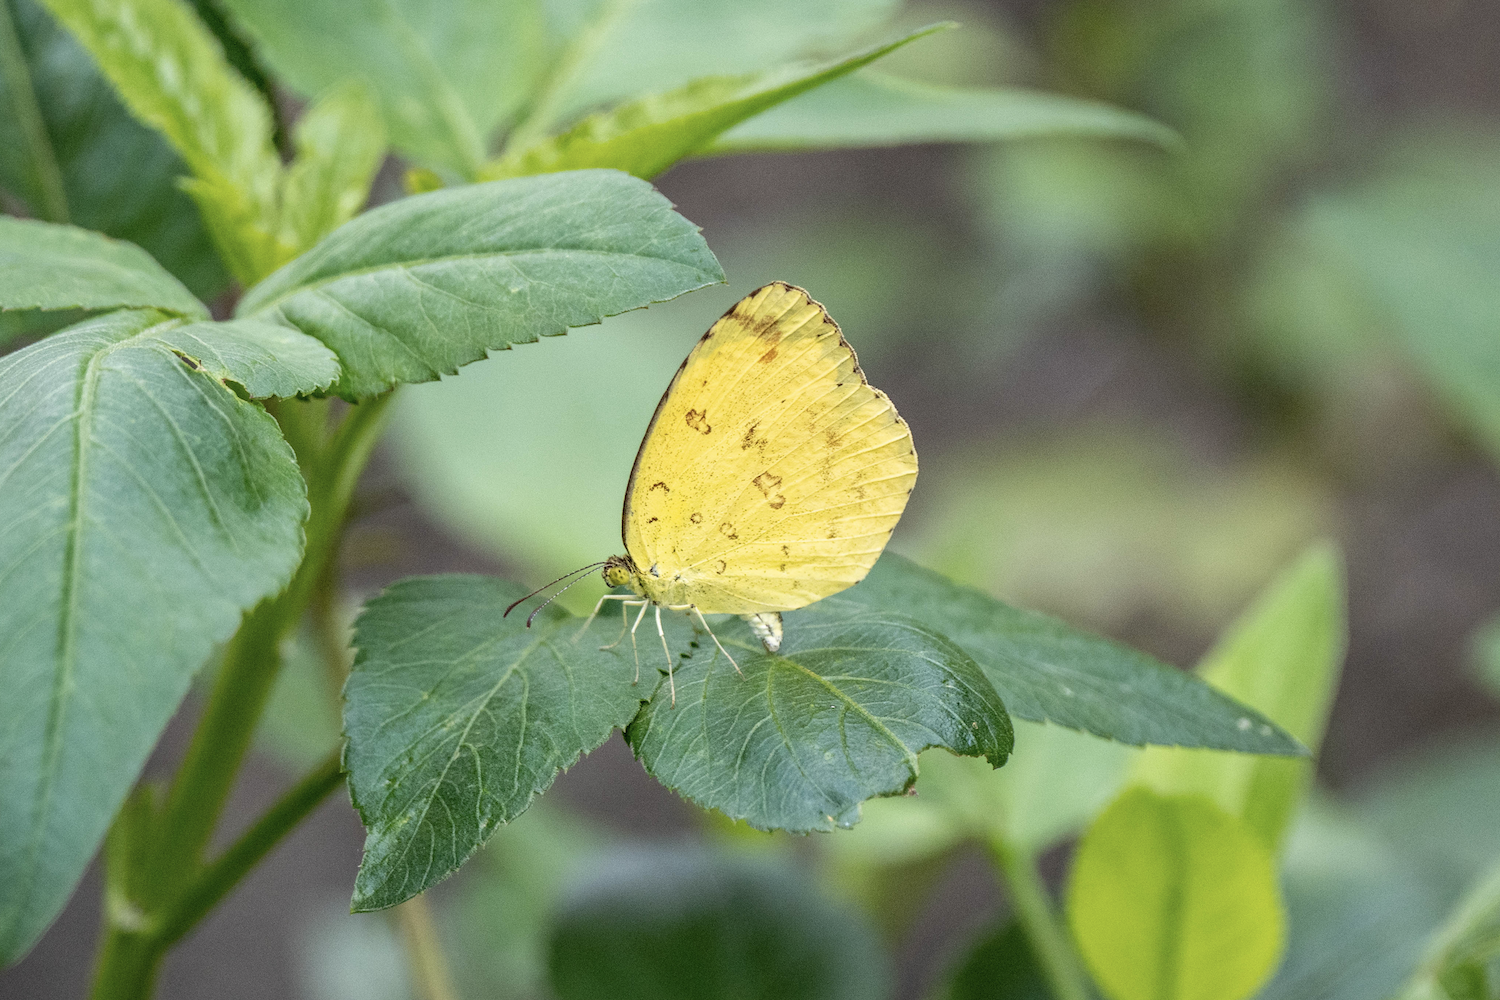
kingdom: Animalia
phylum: Arthropoda
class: Insecta
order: Lepidoptera
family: Pieridae
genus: Eurema
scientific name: Eurema hecabe
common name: Pale grass yellow
